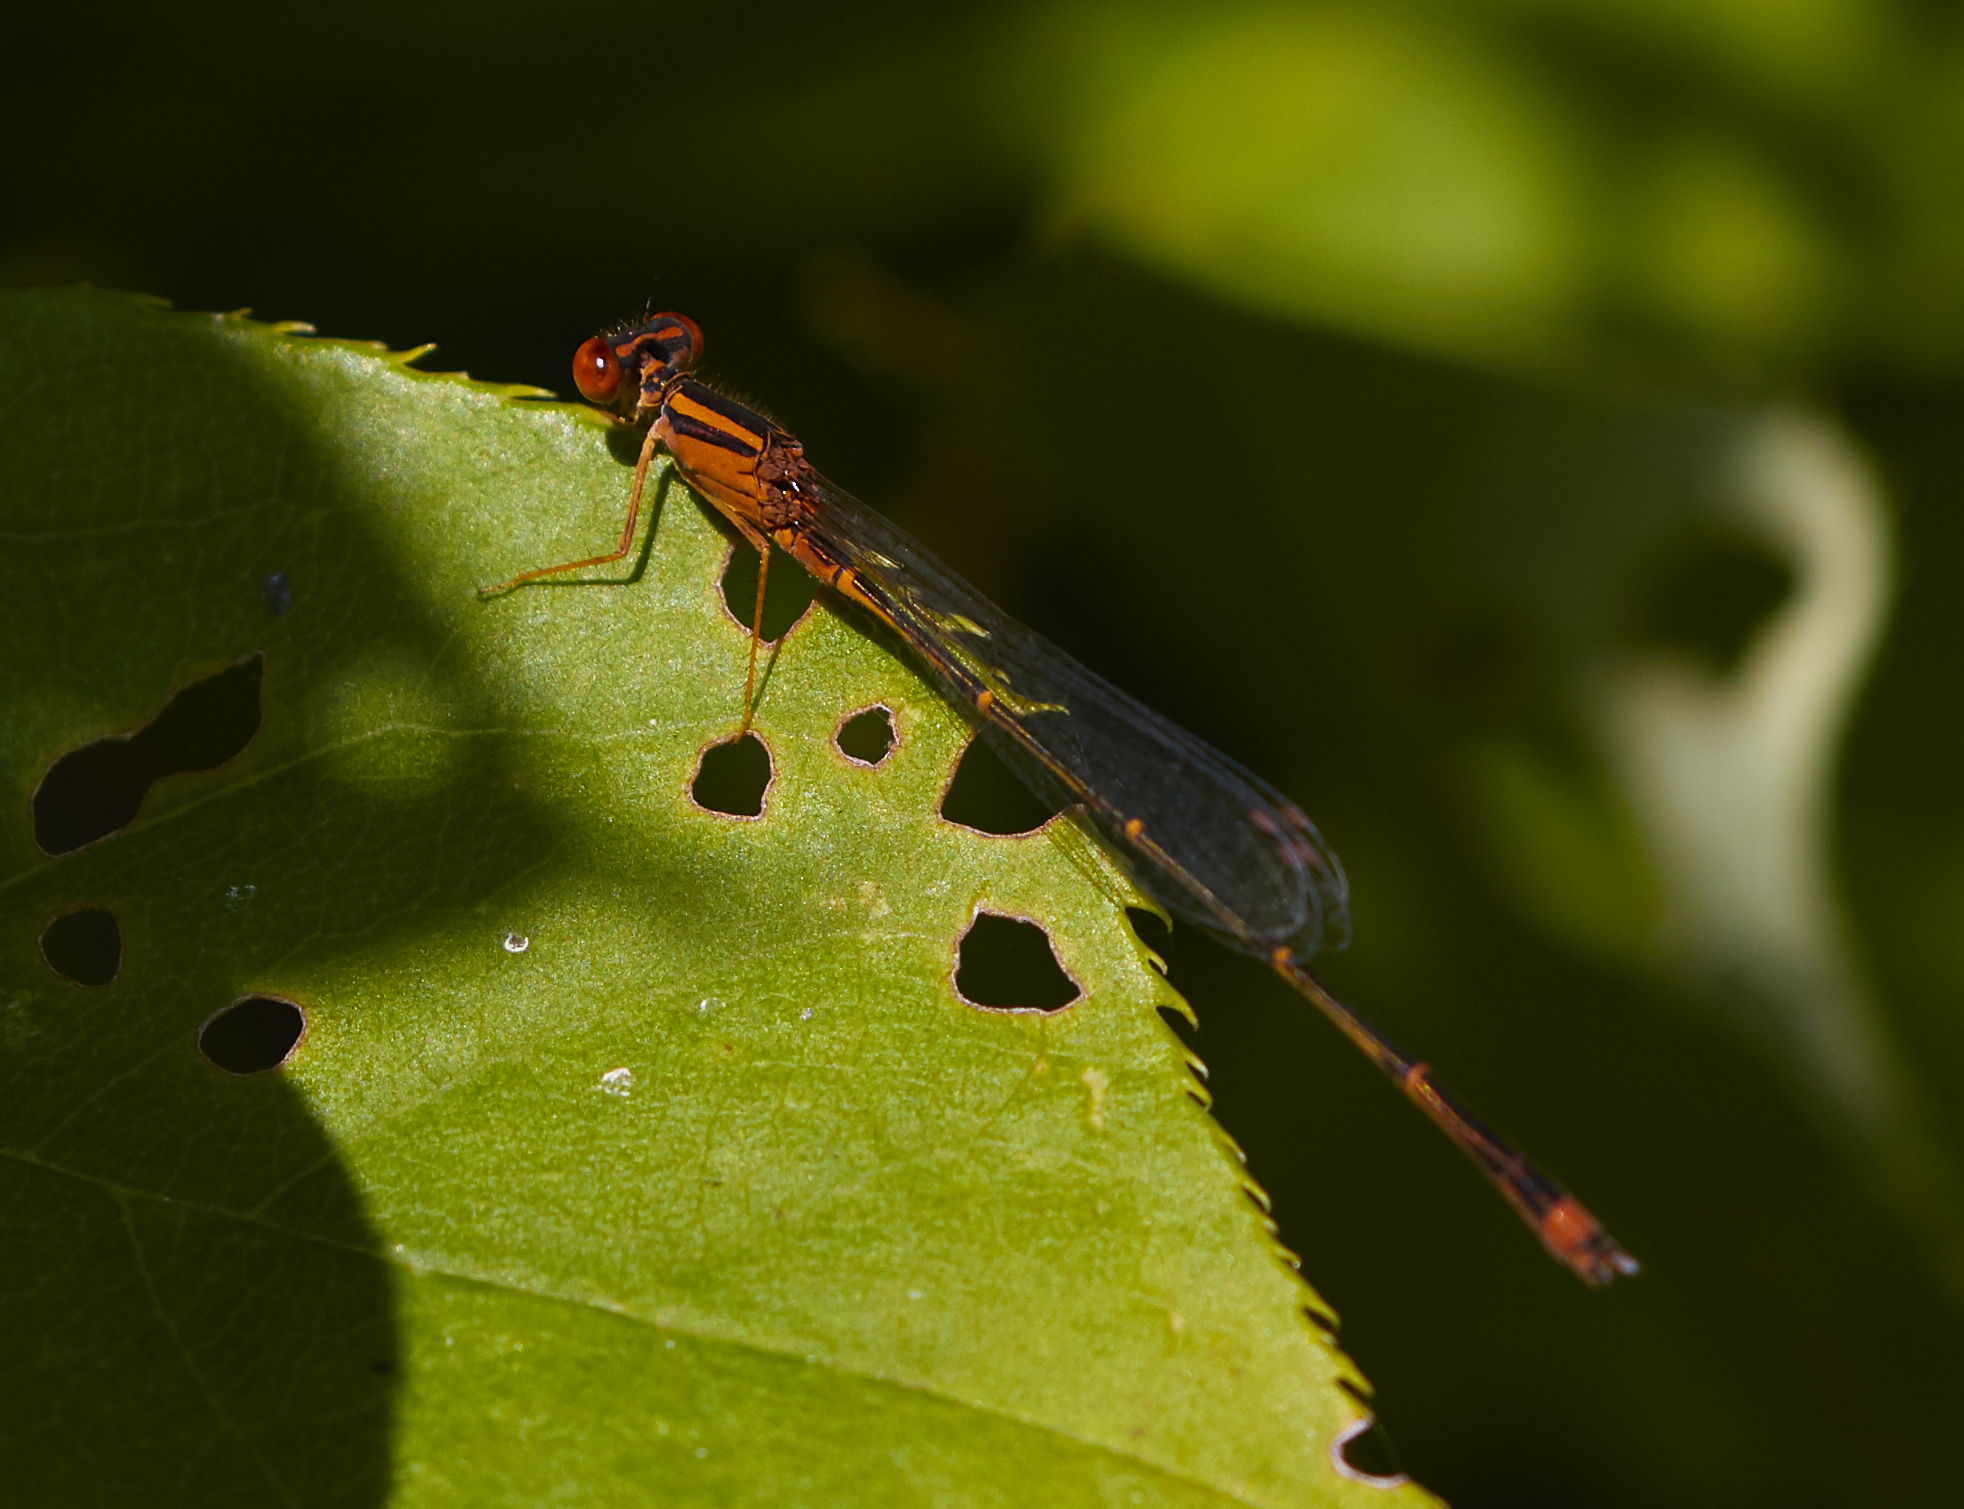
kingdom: Animalia
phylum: Arthropoda
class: Insecta
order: Odonata
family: Coenagrionidae
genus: Enallagma
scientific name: Enallagma signatum
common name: Orange bluet
